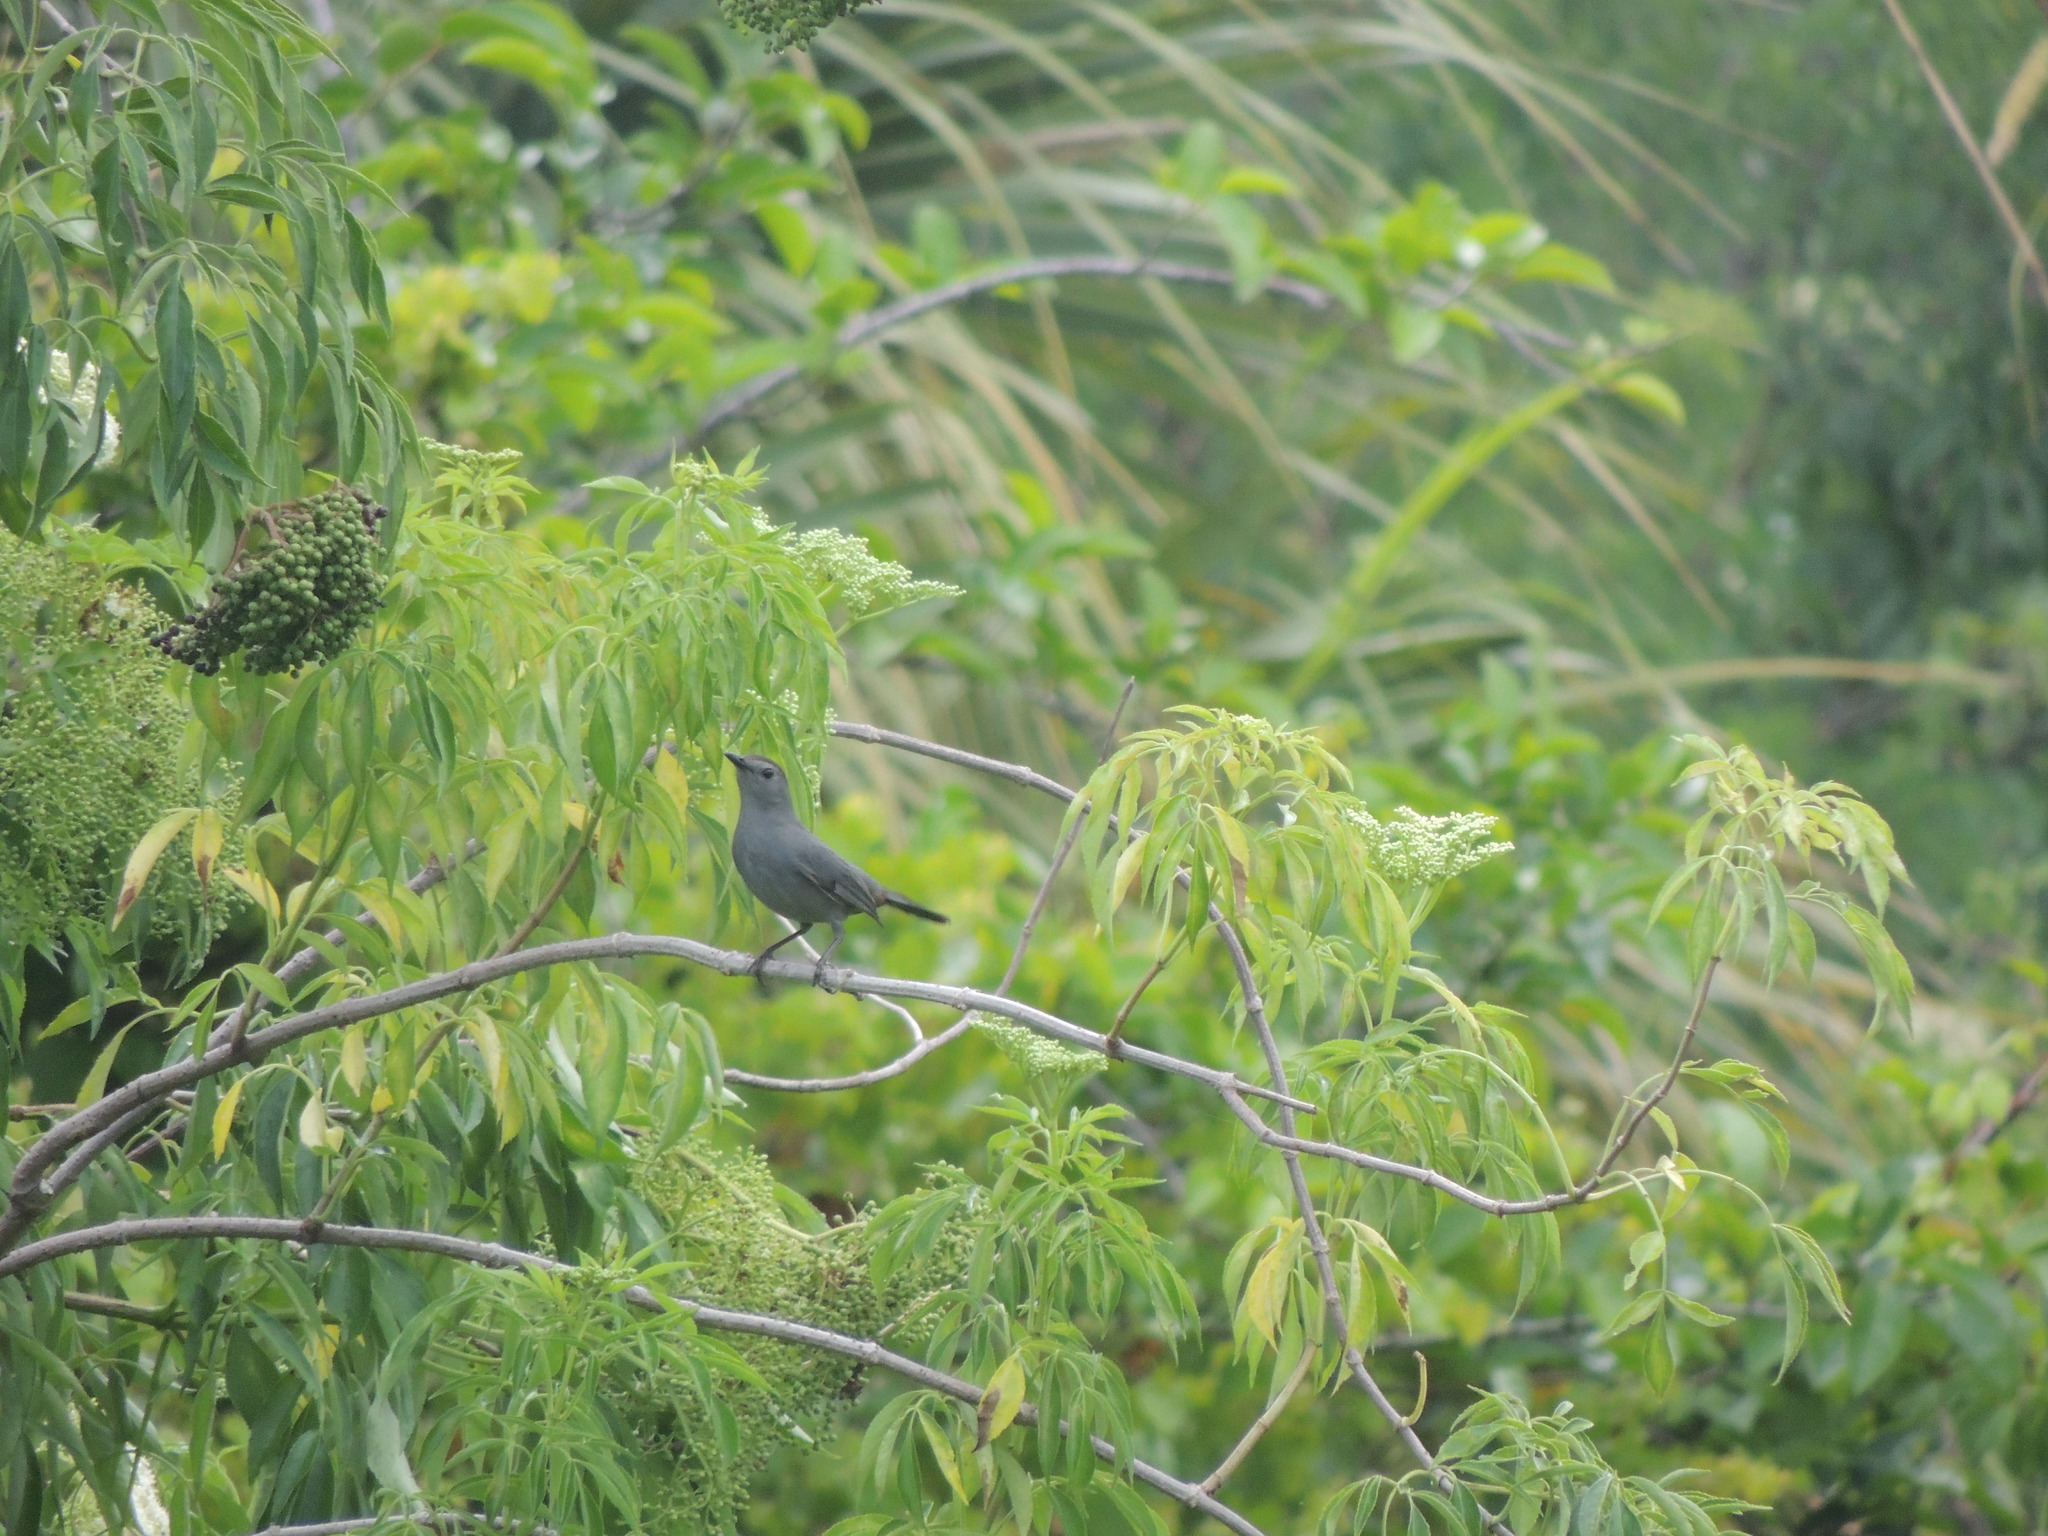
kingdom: Animalia
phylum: Chordata
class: Aves
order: Passeriformes
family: Mimidae
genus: Dumetella
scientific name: Dumetella carolinensis
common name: Gray catbird
